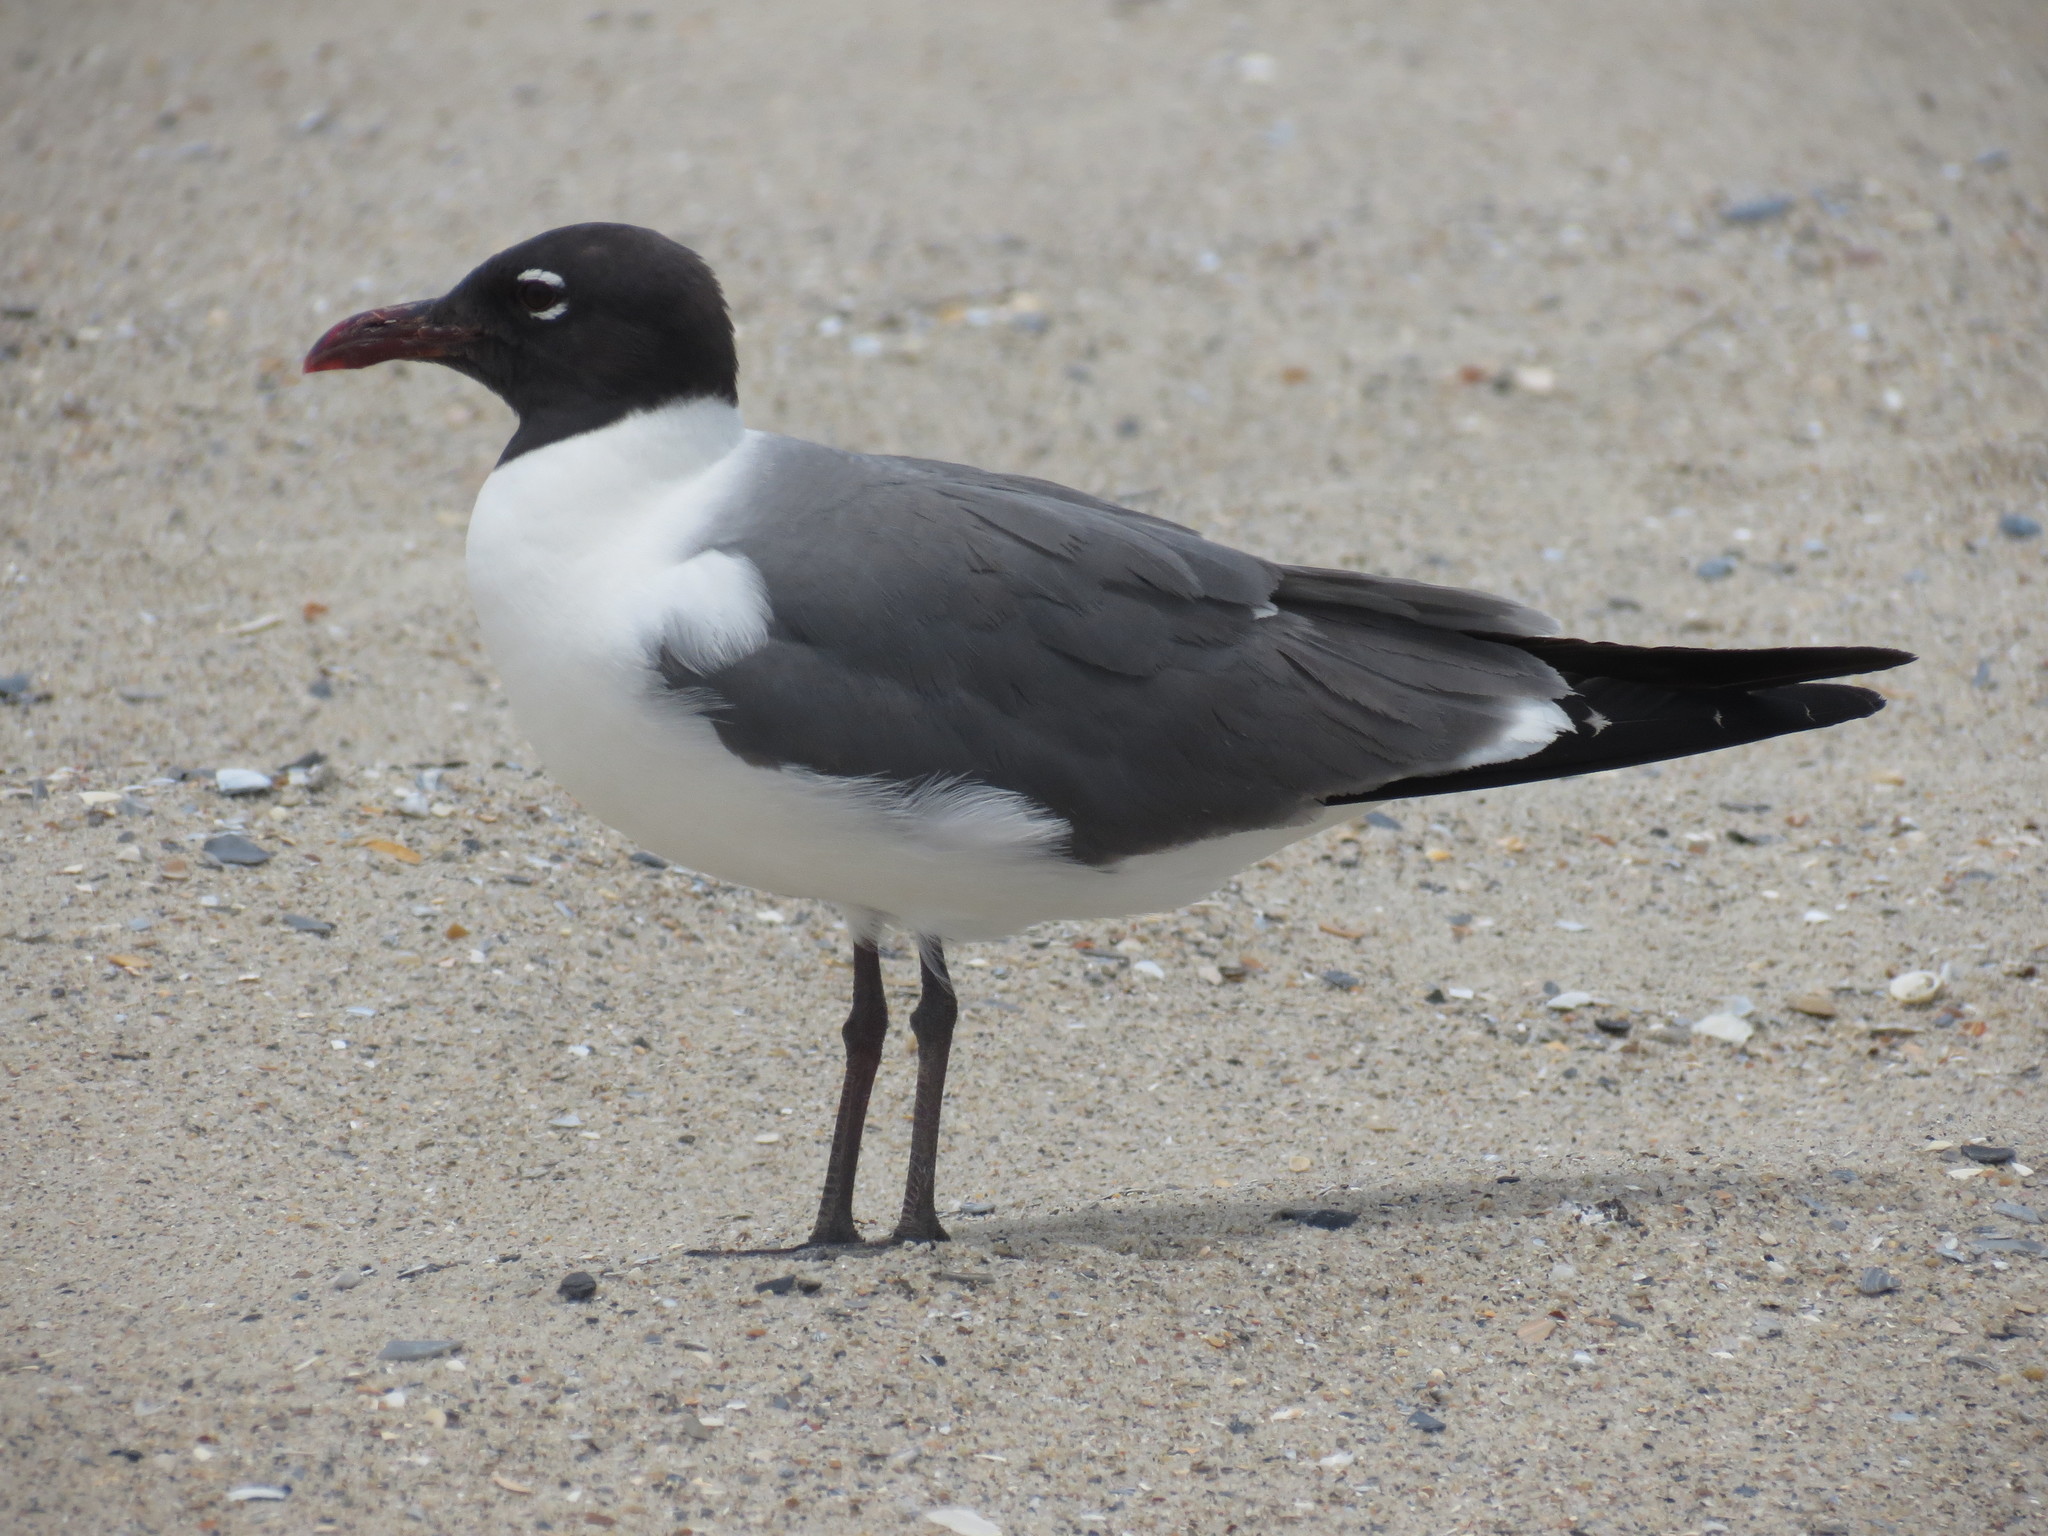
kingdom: Animalia
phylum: Chordata
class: Aves
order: Charadriiformes
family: Laridae
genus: Leucophaeus
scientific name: Leucophaeus atricilla
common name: Laughing gull
